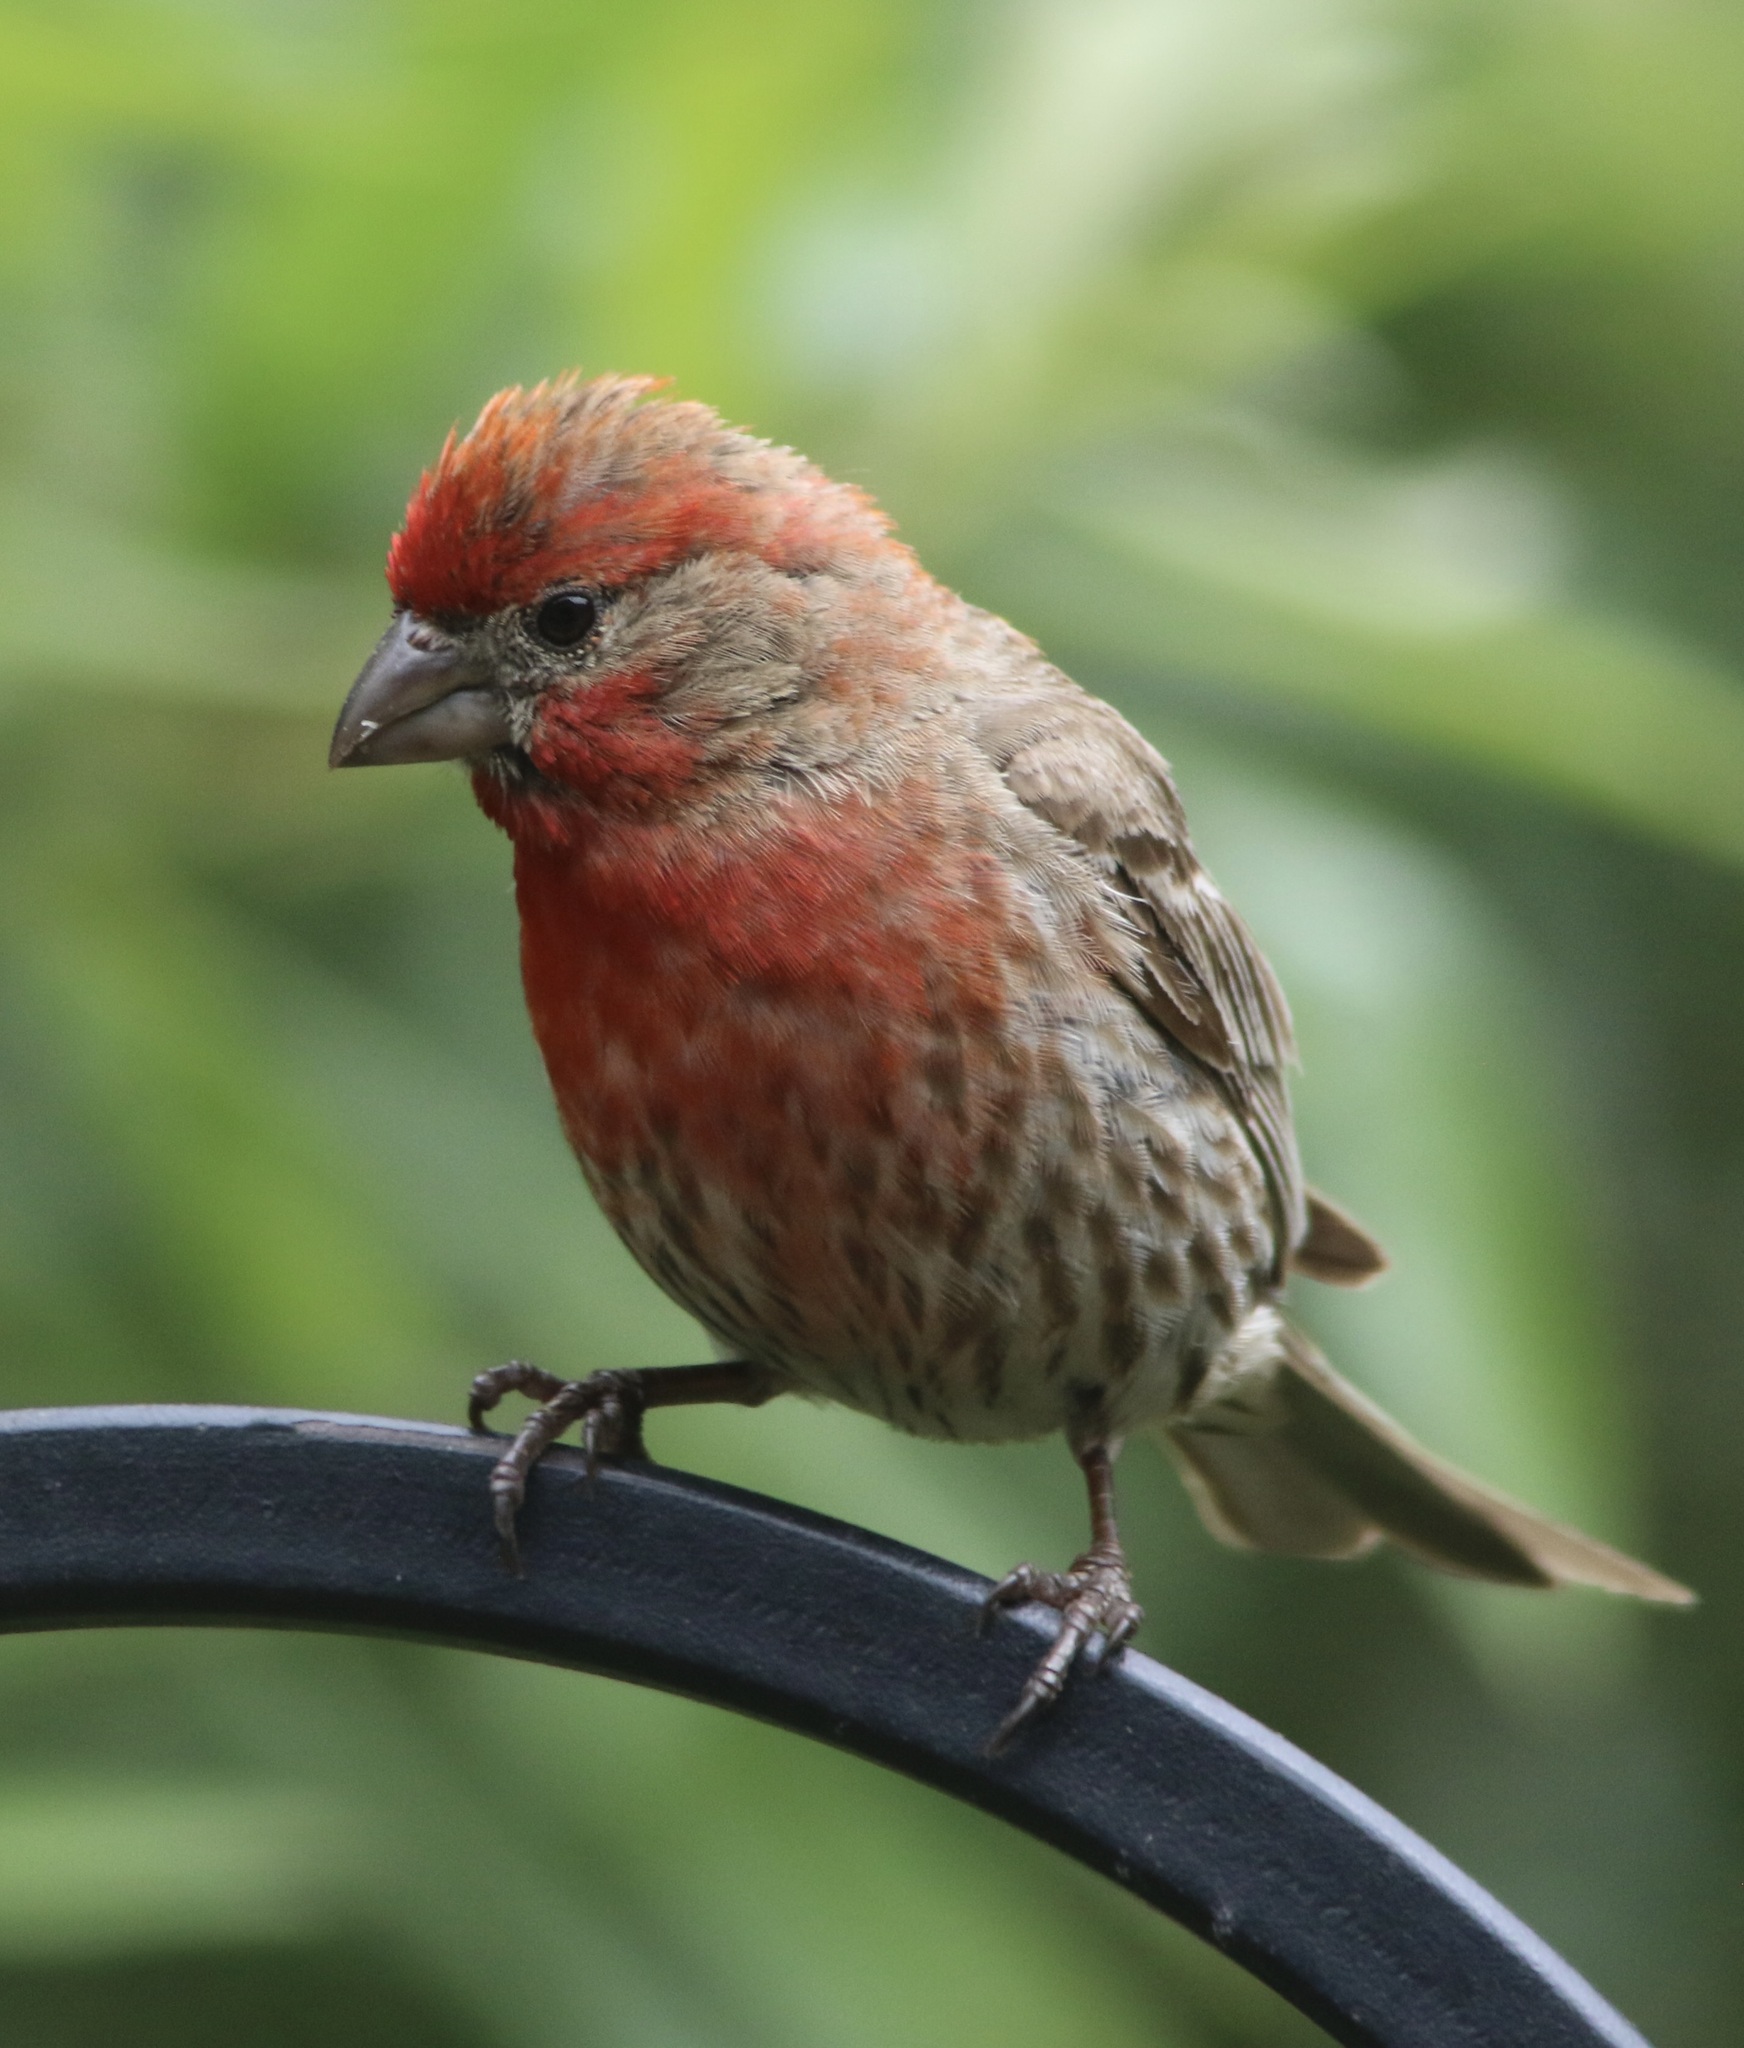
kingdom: Animalia
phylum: Chordata
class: Aves
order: Passeriformes
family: Fringillidae
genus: Haemorhous
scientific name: Haemorhous mexicanus
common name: House finch
